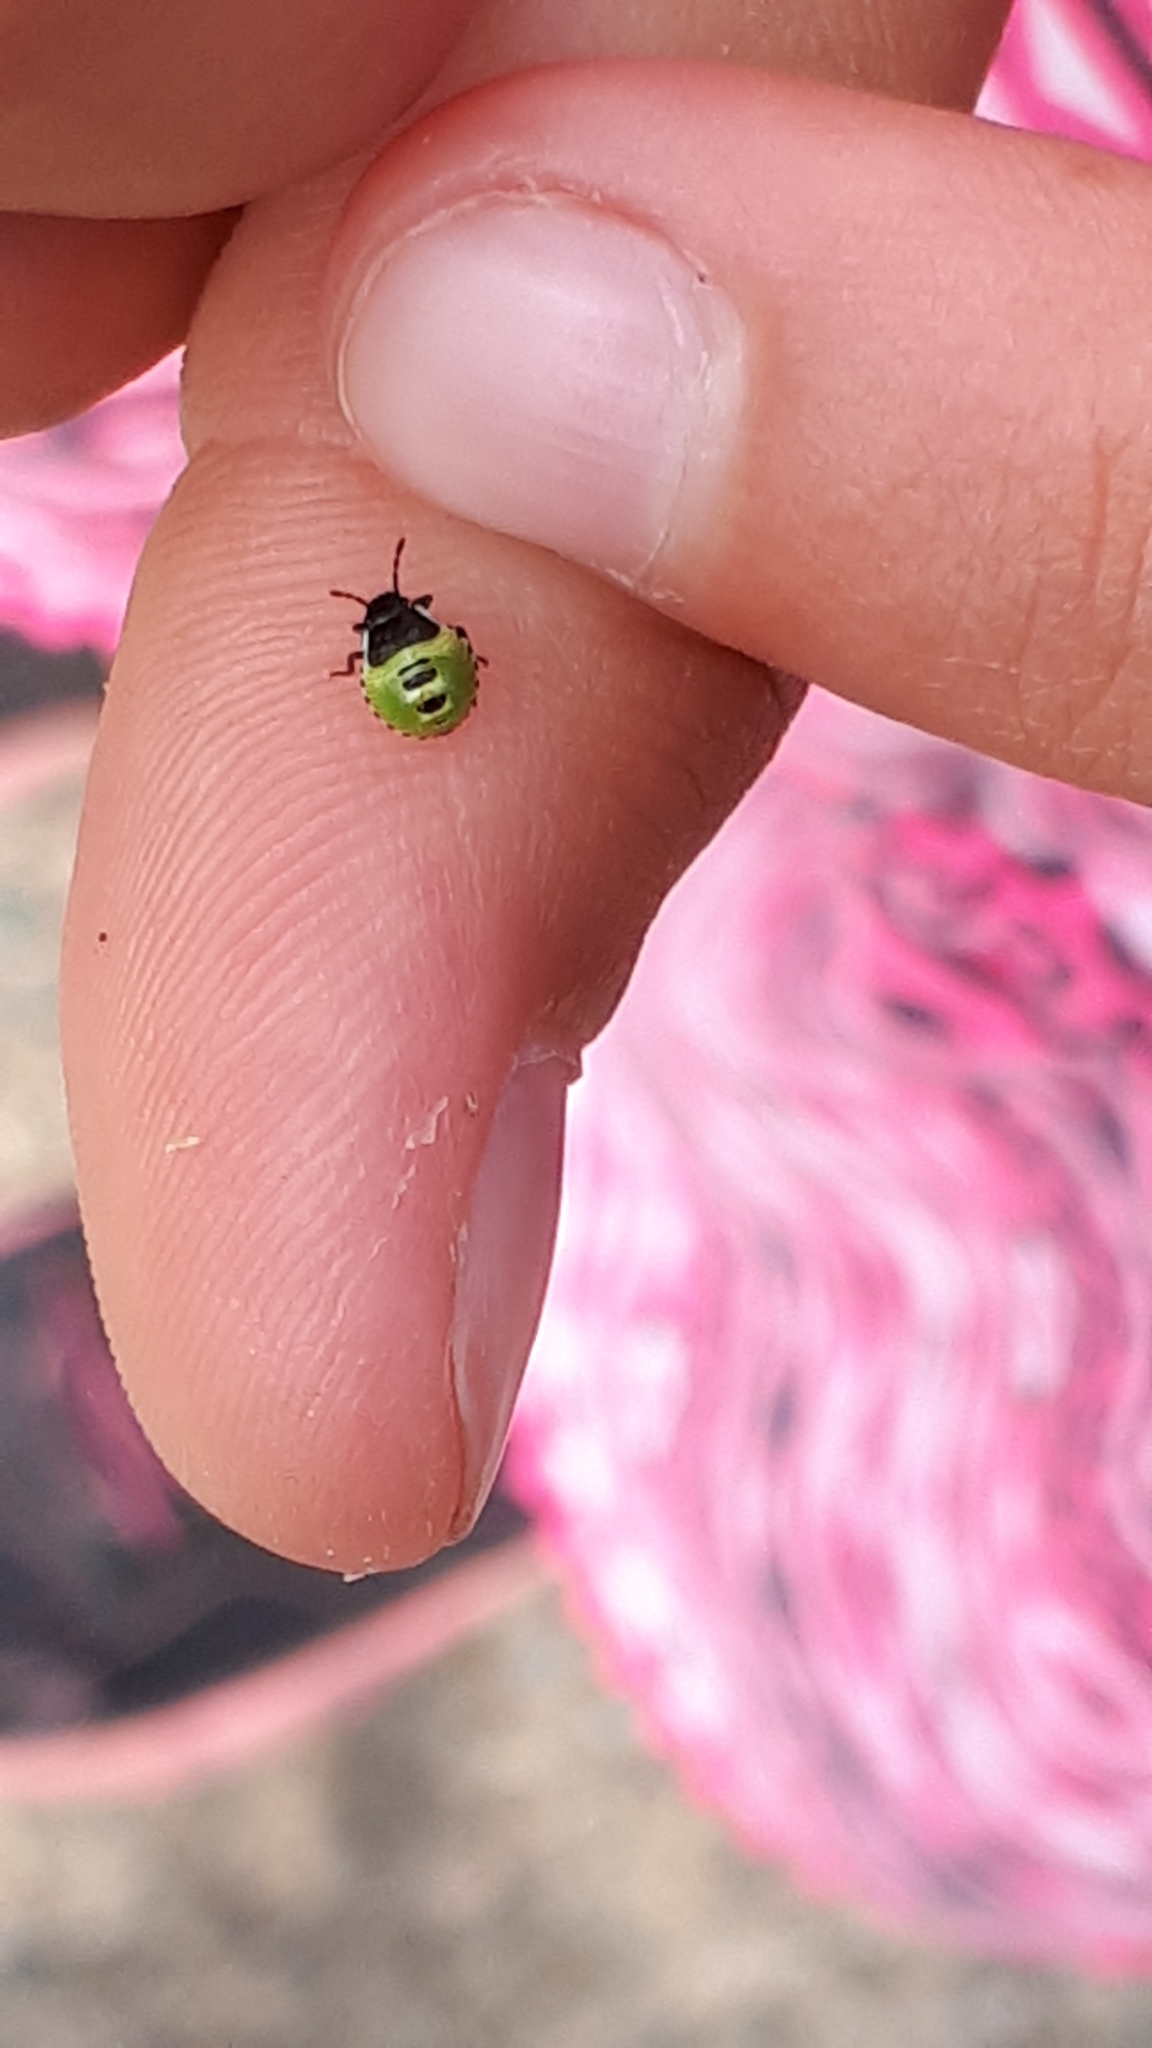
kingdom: Animalia
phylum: Arthropoda
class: Insecta
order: Hemiptera
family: Pentatomidae
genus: Palomena
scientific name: Palomena prasina
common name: Green shieldbug
